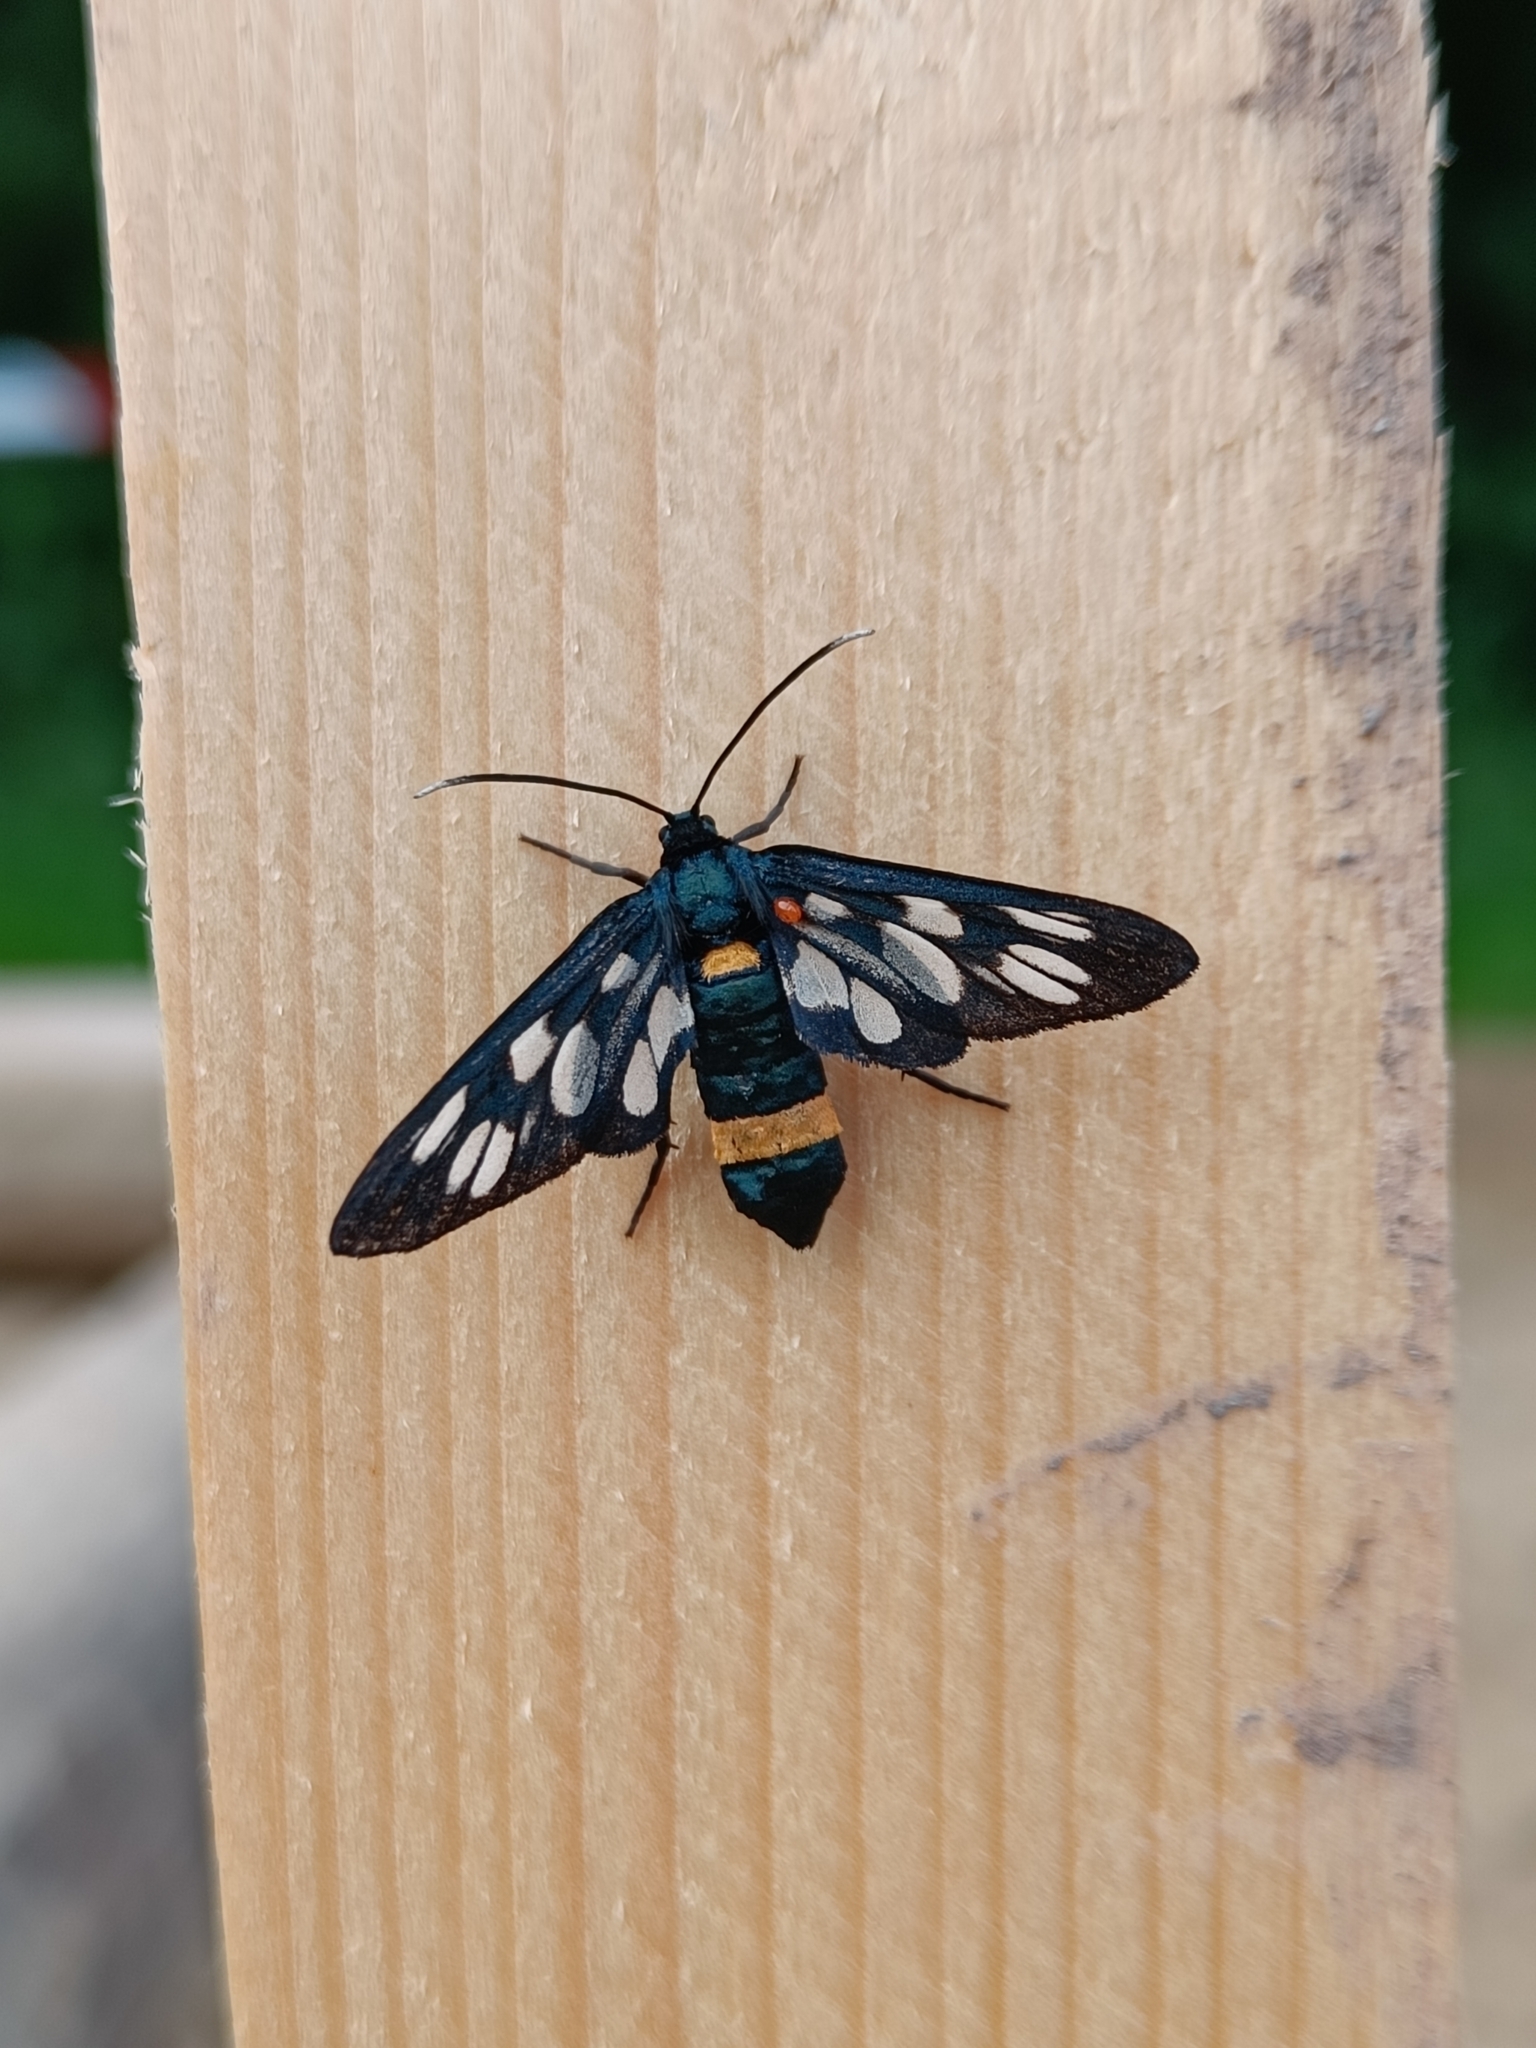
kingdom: Animalia
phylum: Arthropoda
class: Insecta
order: Lepidoptera
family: Erebidae
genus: Amata
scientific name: Amata phegea
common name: Nine-spotted
